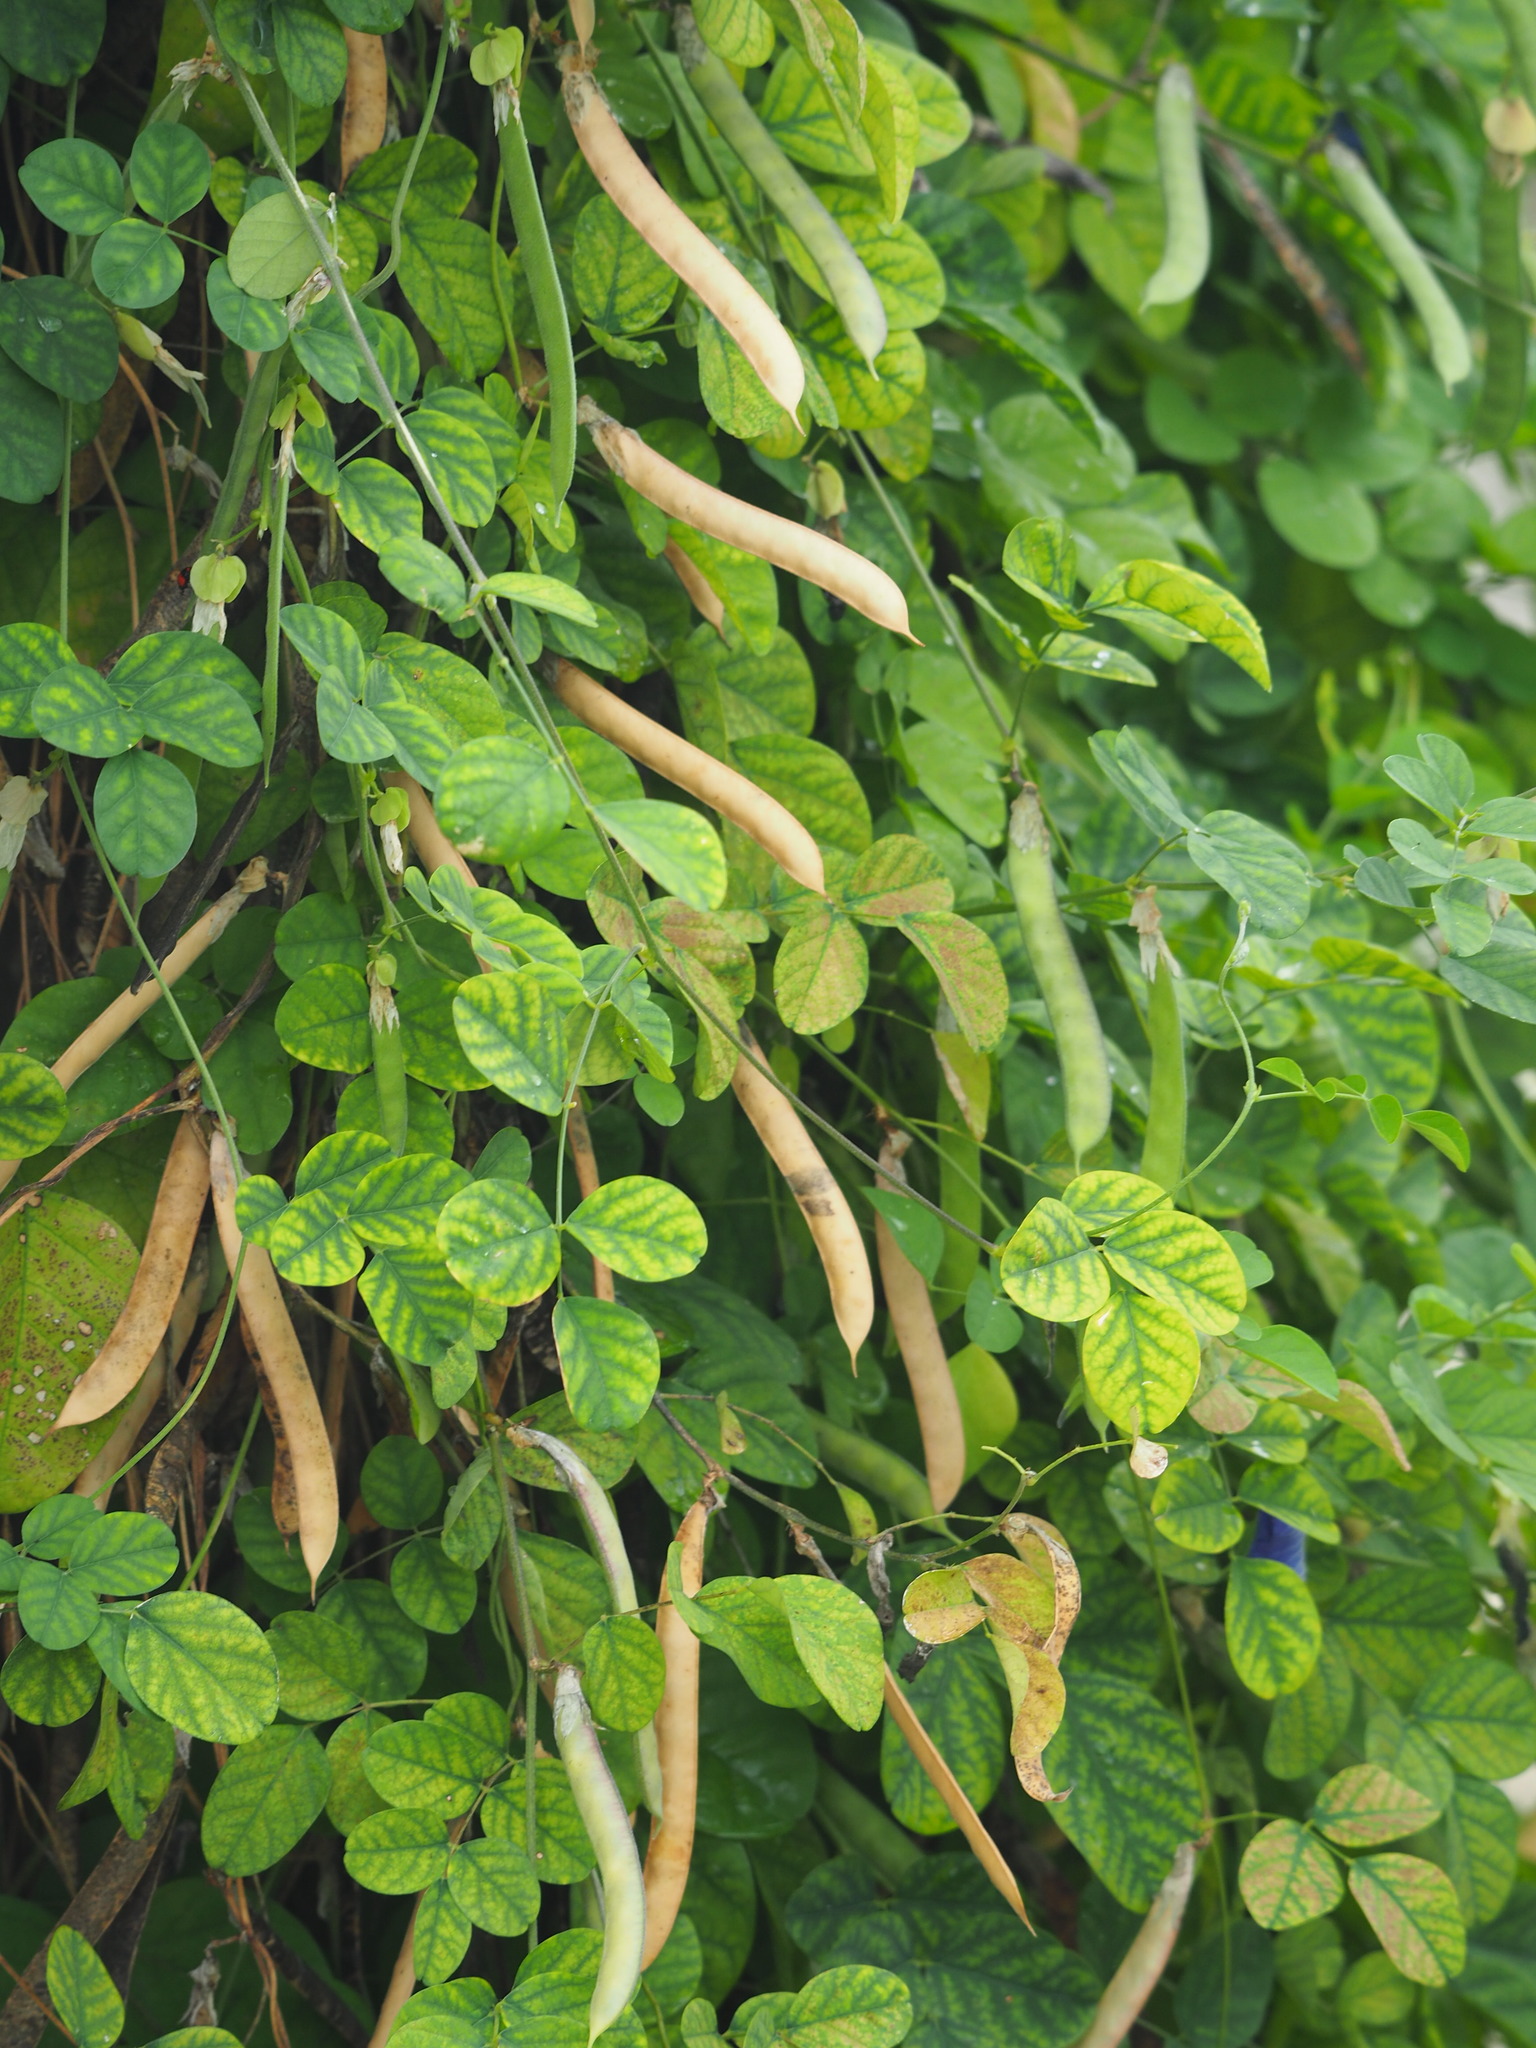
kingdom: Plantae
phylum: Tracheophyta
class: Magnoliopsida
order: Fabales
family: Fabaceae
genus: Clitoria
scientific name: Clitoria ternatea
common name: Asian pigeonwings
